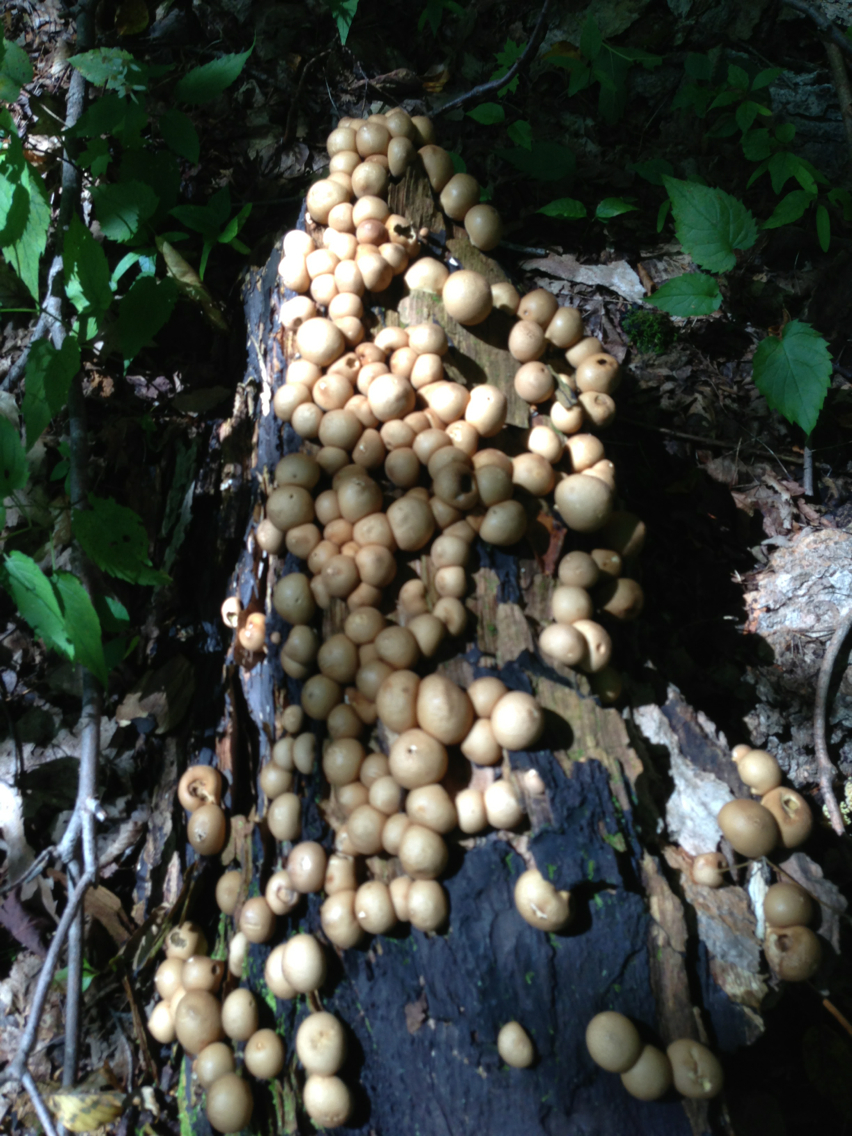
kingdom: Fungi
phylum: Basidiomycota
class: Agaricomycetes
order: Agaricales
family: Lycoperdaceae
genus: Apioperdon
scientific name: Apioperdon pyriforme
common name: Pear-shaped puffball
